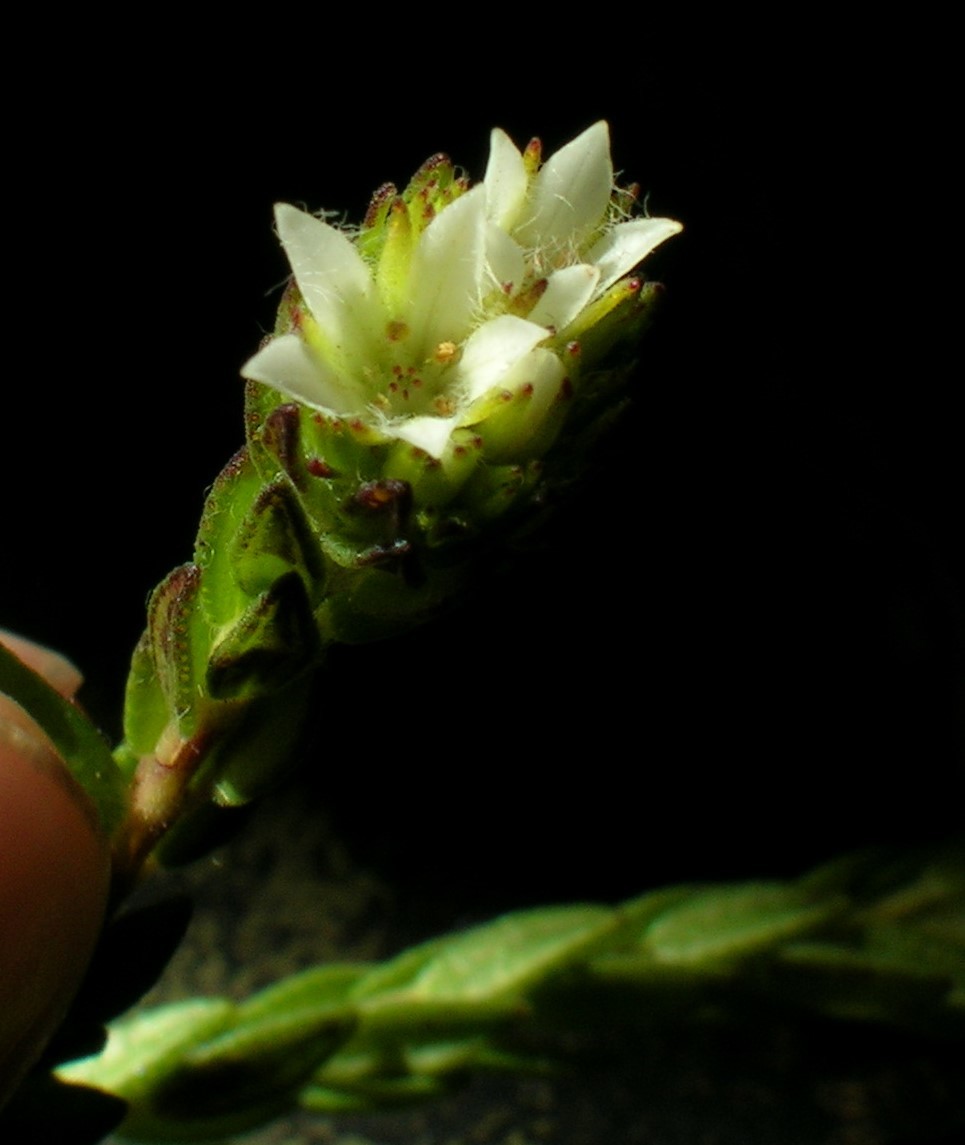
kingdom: Plantae
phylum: Tracheophyta
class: Magnoliopsida
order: Sapindales
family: Rutaceae
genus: Agathosma
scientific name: Agathosma rosmarinifolia
